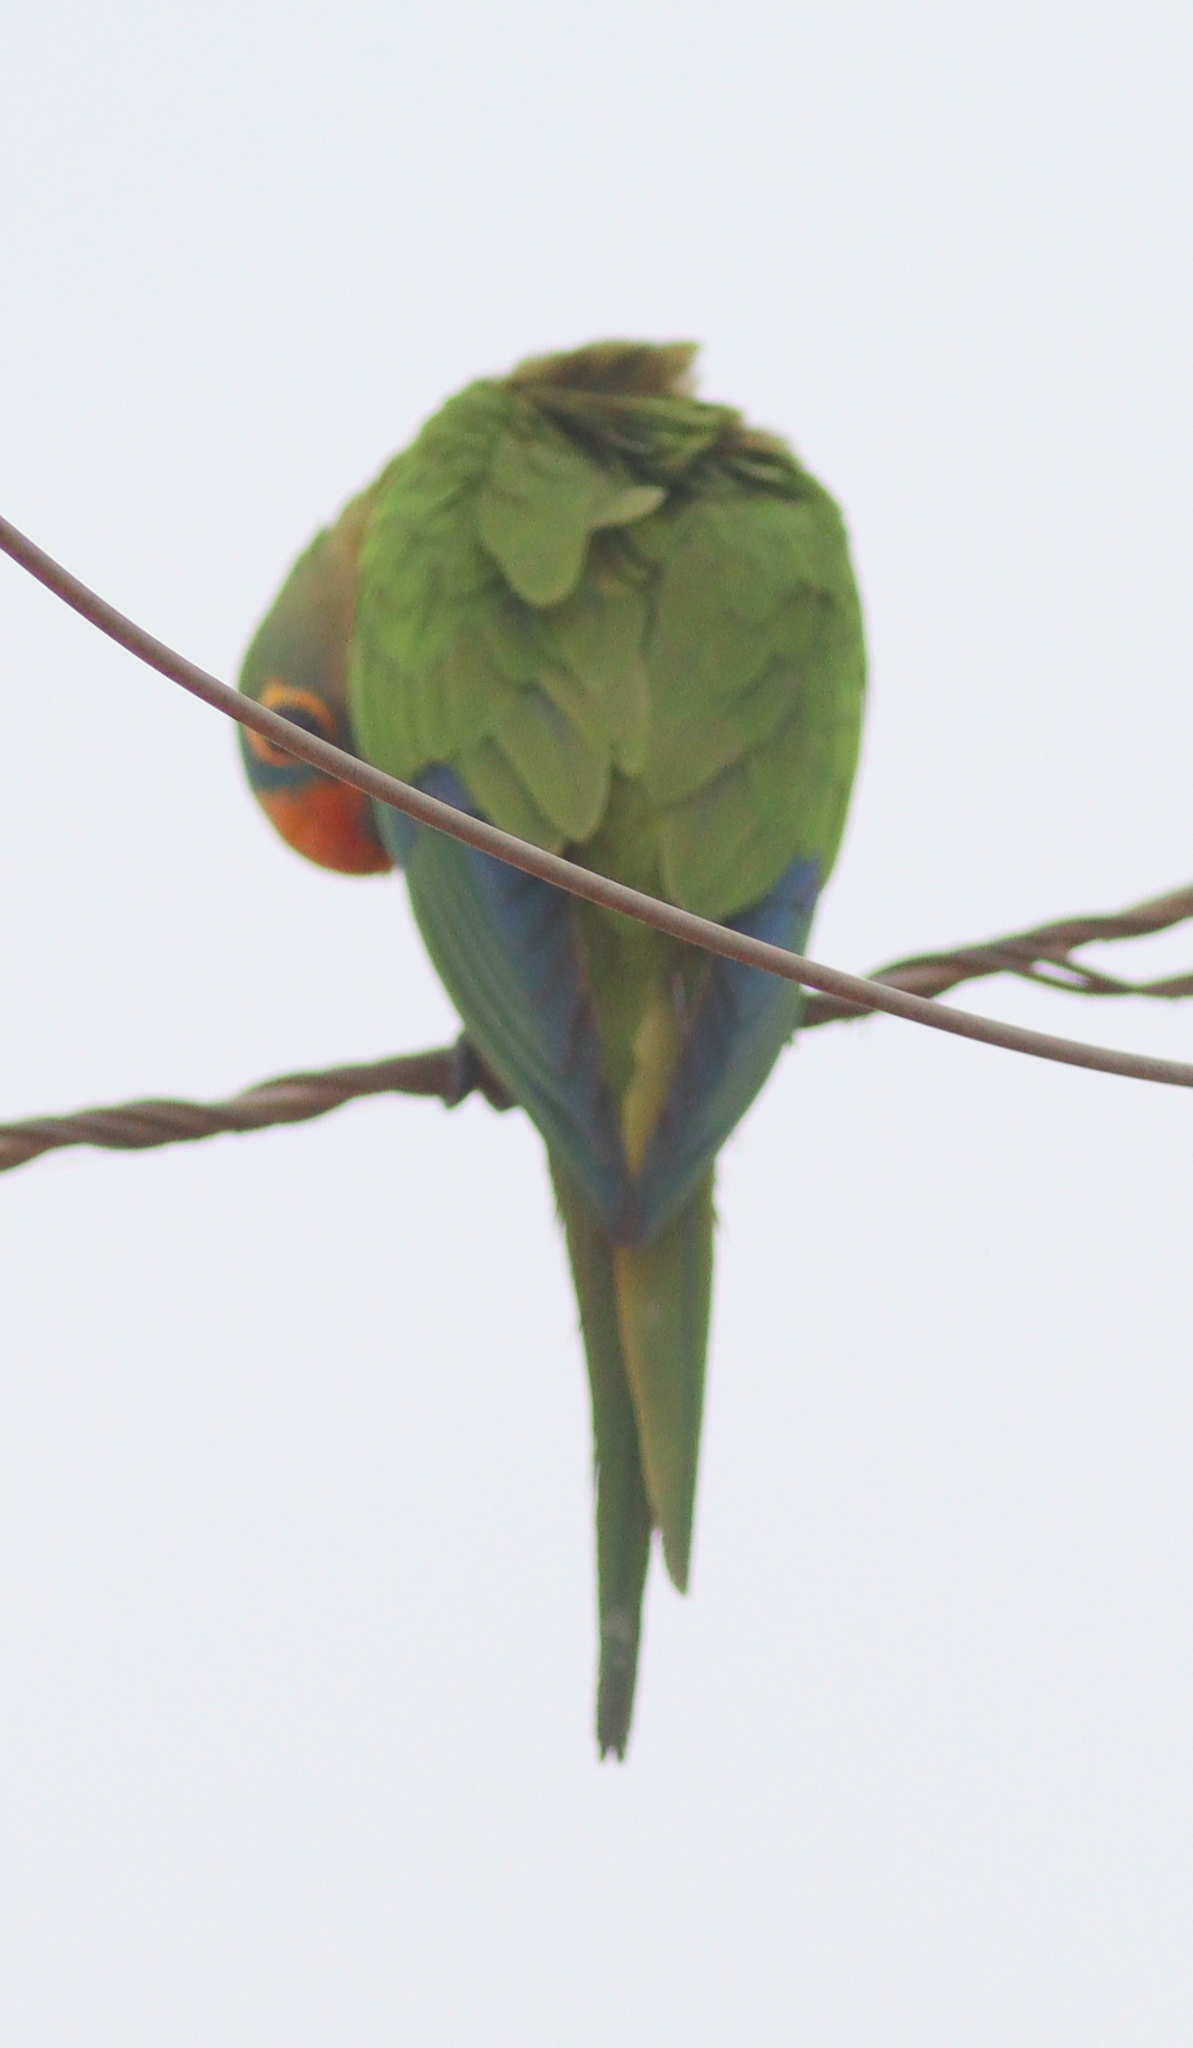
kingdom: Animalia
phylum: Chordata
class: Aves
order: Psittaciformes
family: Psittacidae
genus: Aratinga
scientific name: Aratinga aurea
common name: Peach-fronted parakeet
